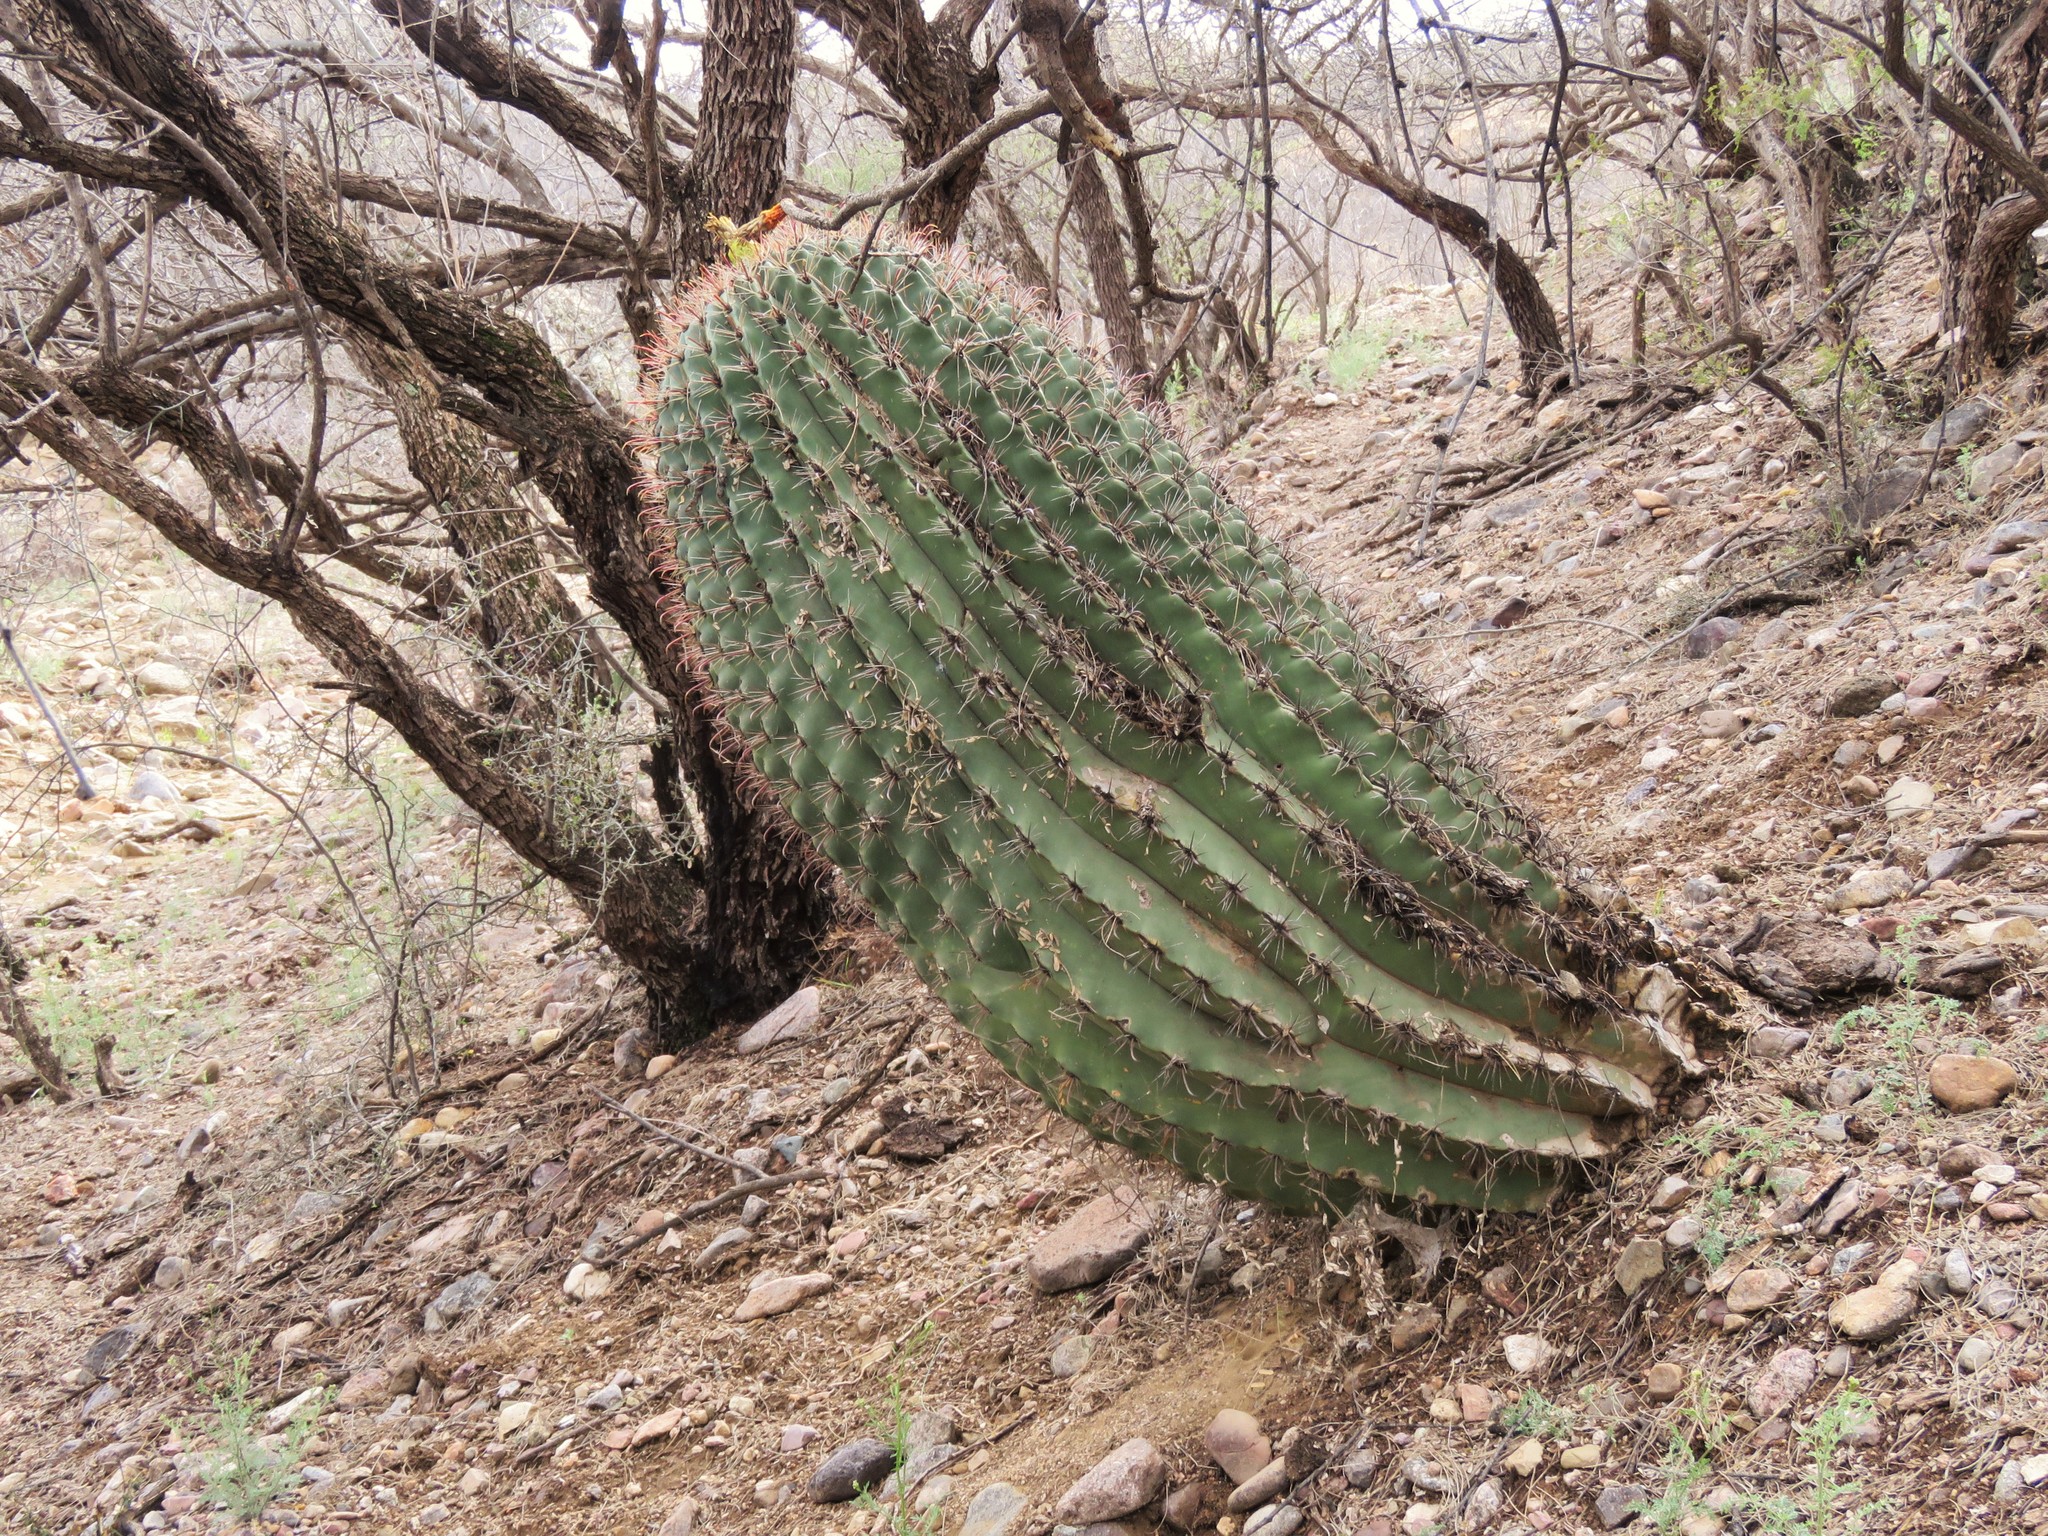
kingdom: Plantae
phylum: Tracheophyta
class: Magnoliopsida
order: Caryophyllales
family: Cactaceae
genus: Ferocactus
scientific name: Ferocactus wislizeni
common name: Candy barrel cactus
